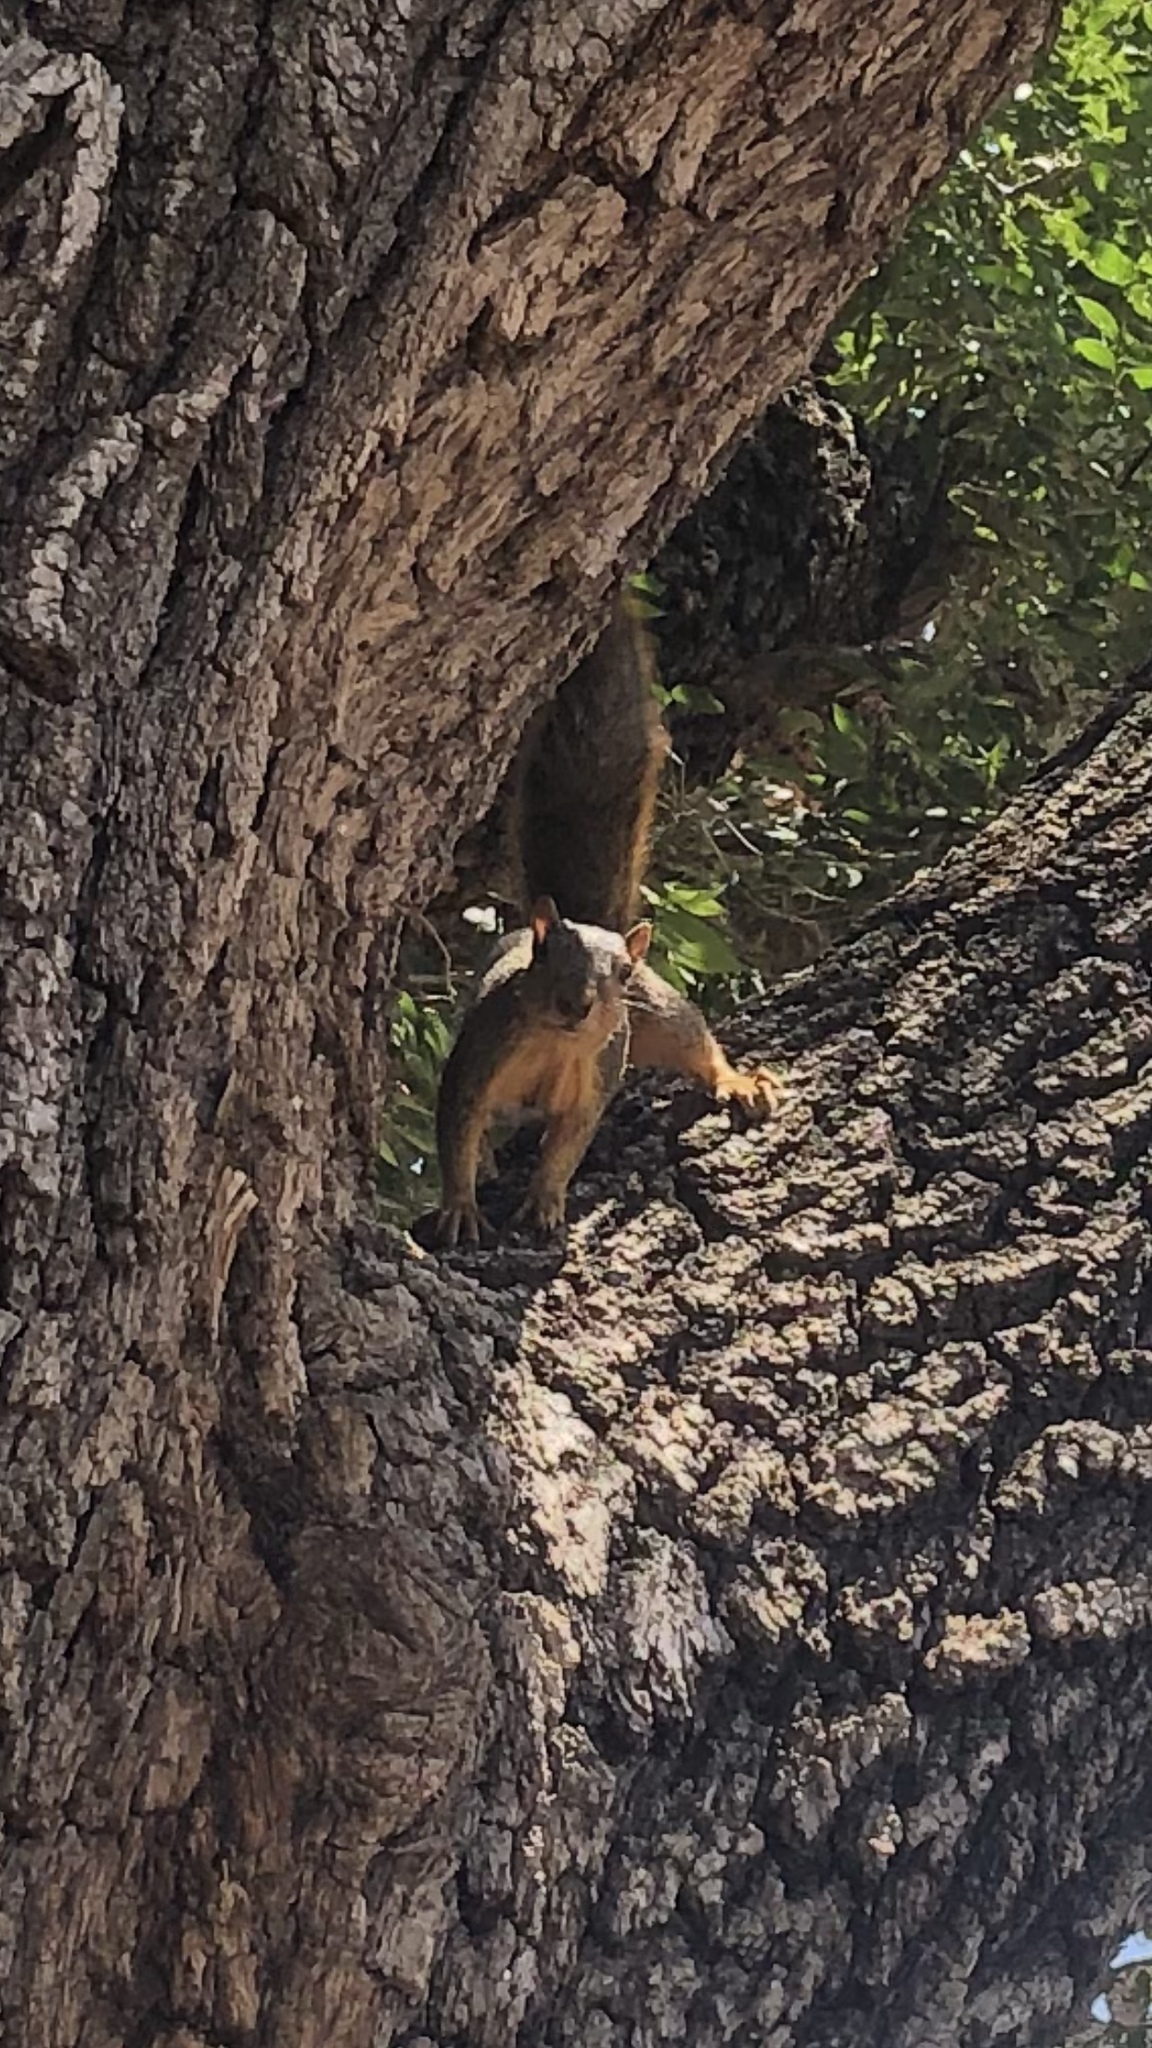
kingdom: Animalia
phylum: Chordata
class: Mammalia
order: Rodentia
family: Sciuridae
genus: Sciurus
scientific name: Sciurus niger
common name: Fox squirrel
